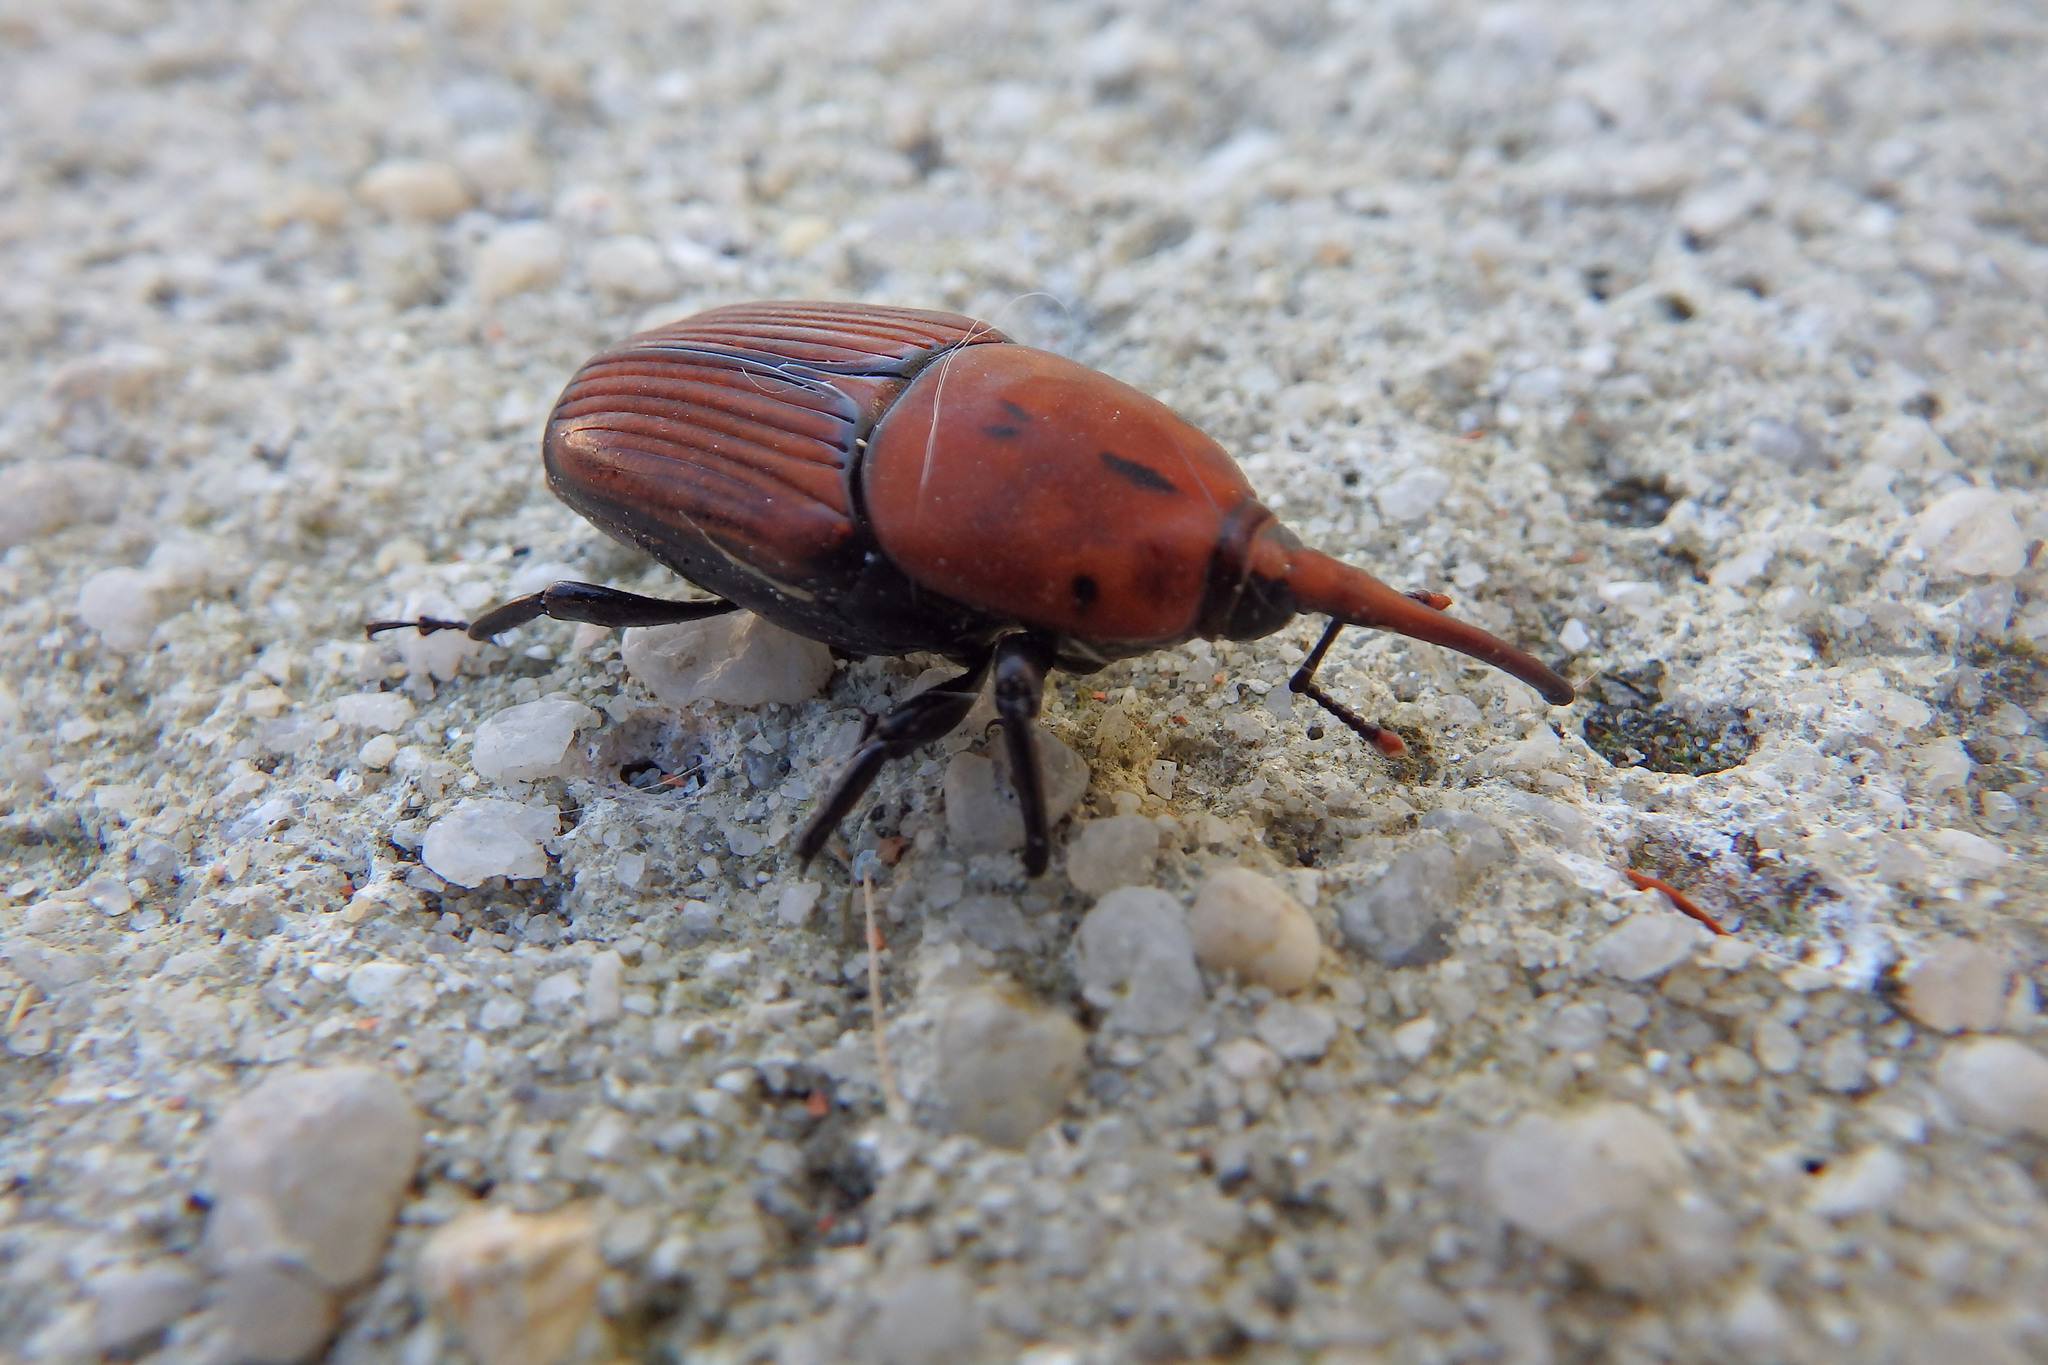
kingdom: Animalia
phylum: Arthropoda
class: Insecta
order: Coleoptera
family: Dryophthoridae
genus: Rhynchophorus
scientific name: Rhynchophorus ferrugineus
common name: Red palm weevil
